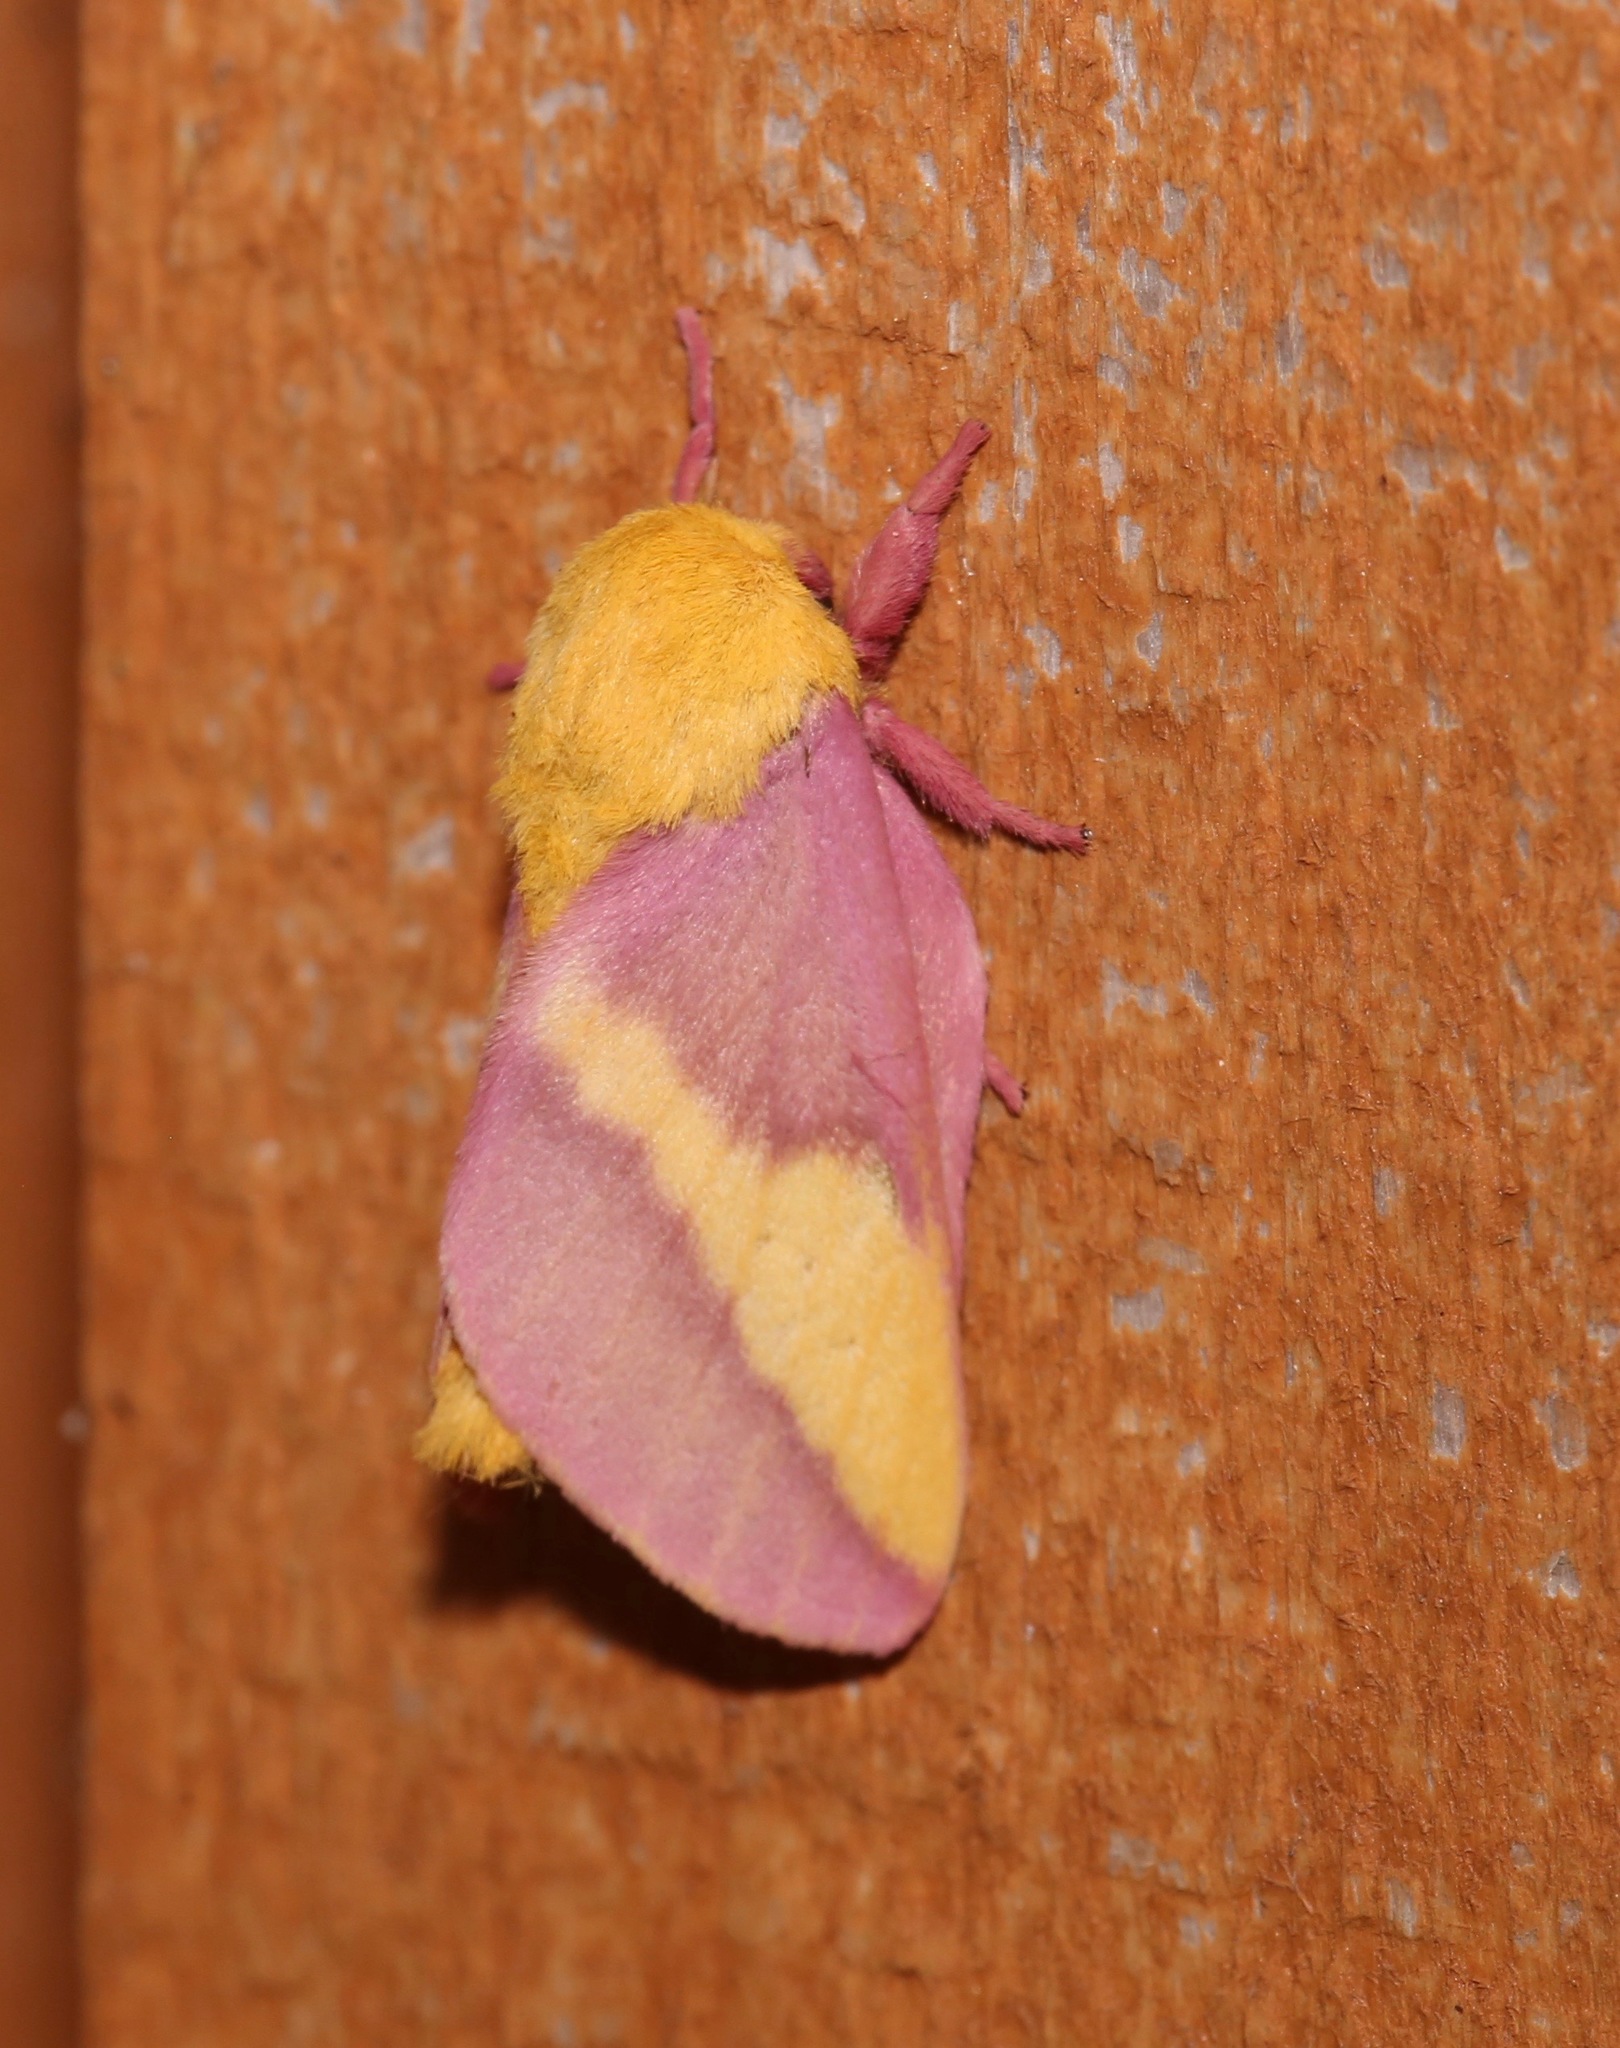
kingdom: Animalia
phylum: Arthropoda
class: Insecta
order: Lepidoptera
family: Saturniidae
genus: Dryocampa
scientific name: Dryocampa rubicunda
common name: Rosy maple moth
